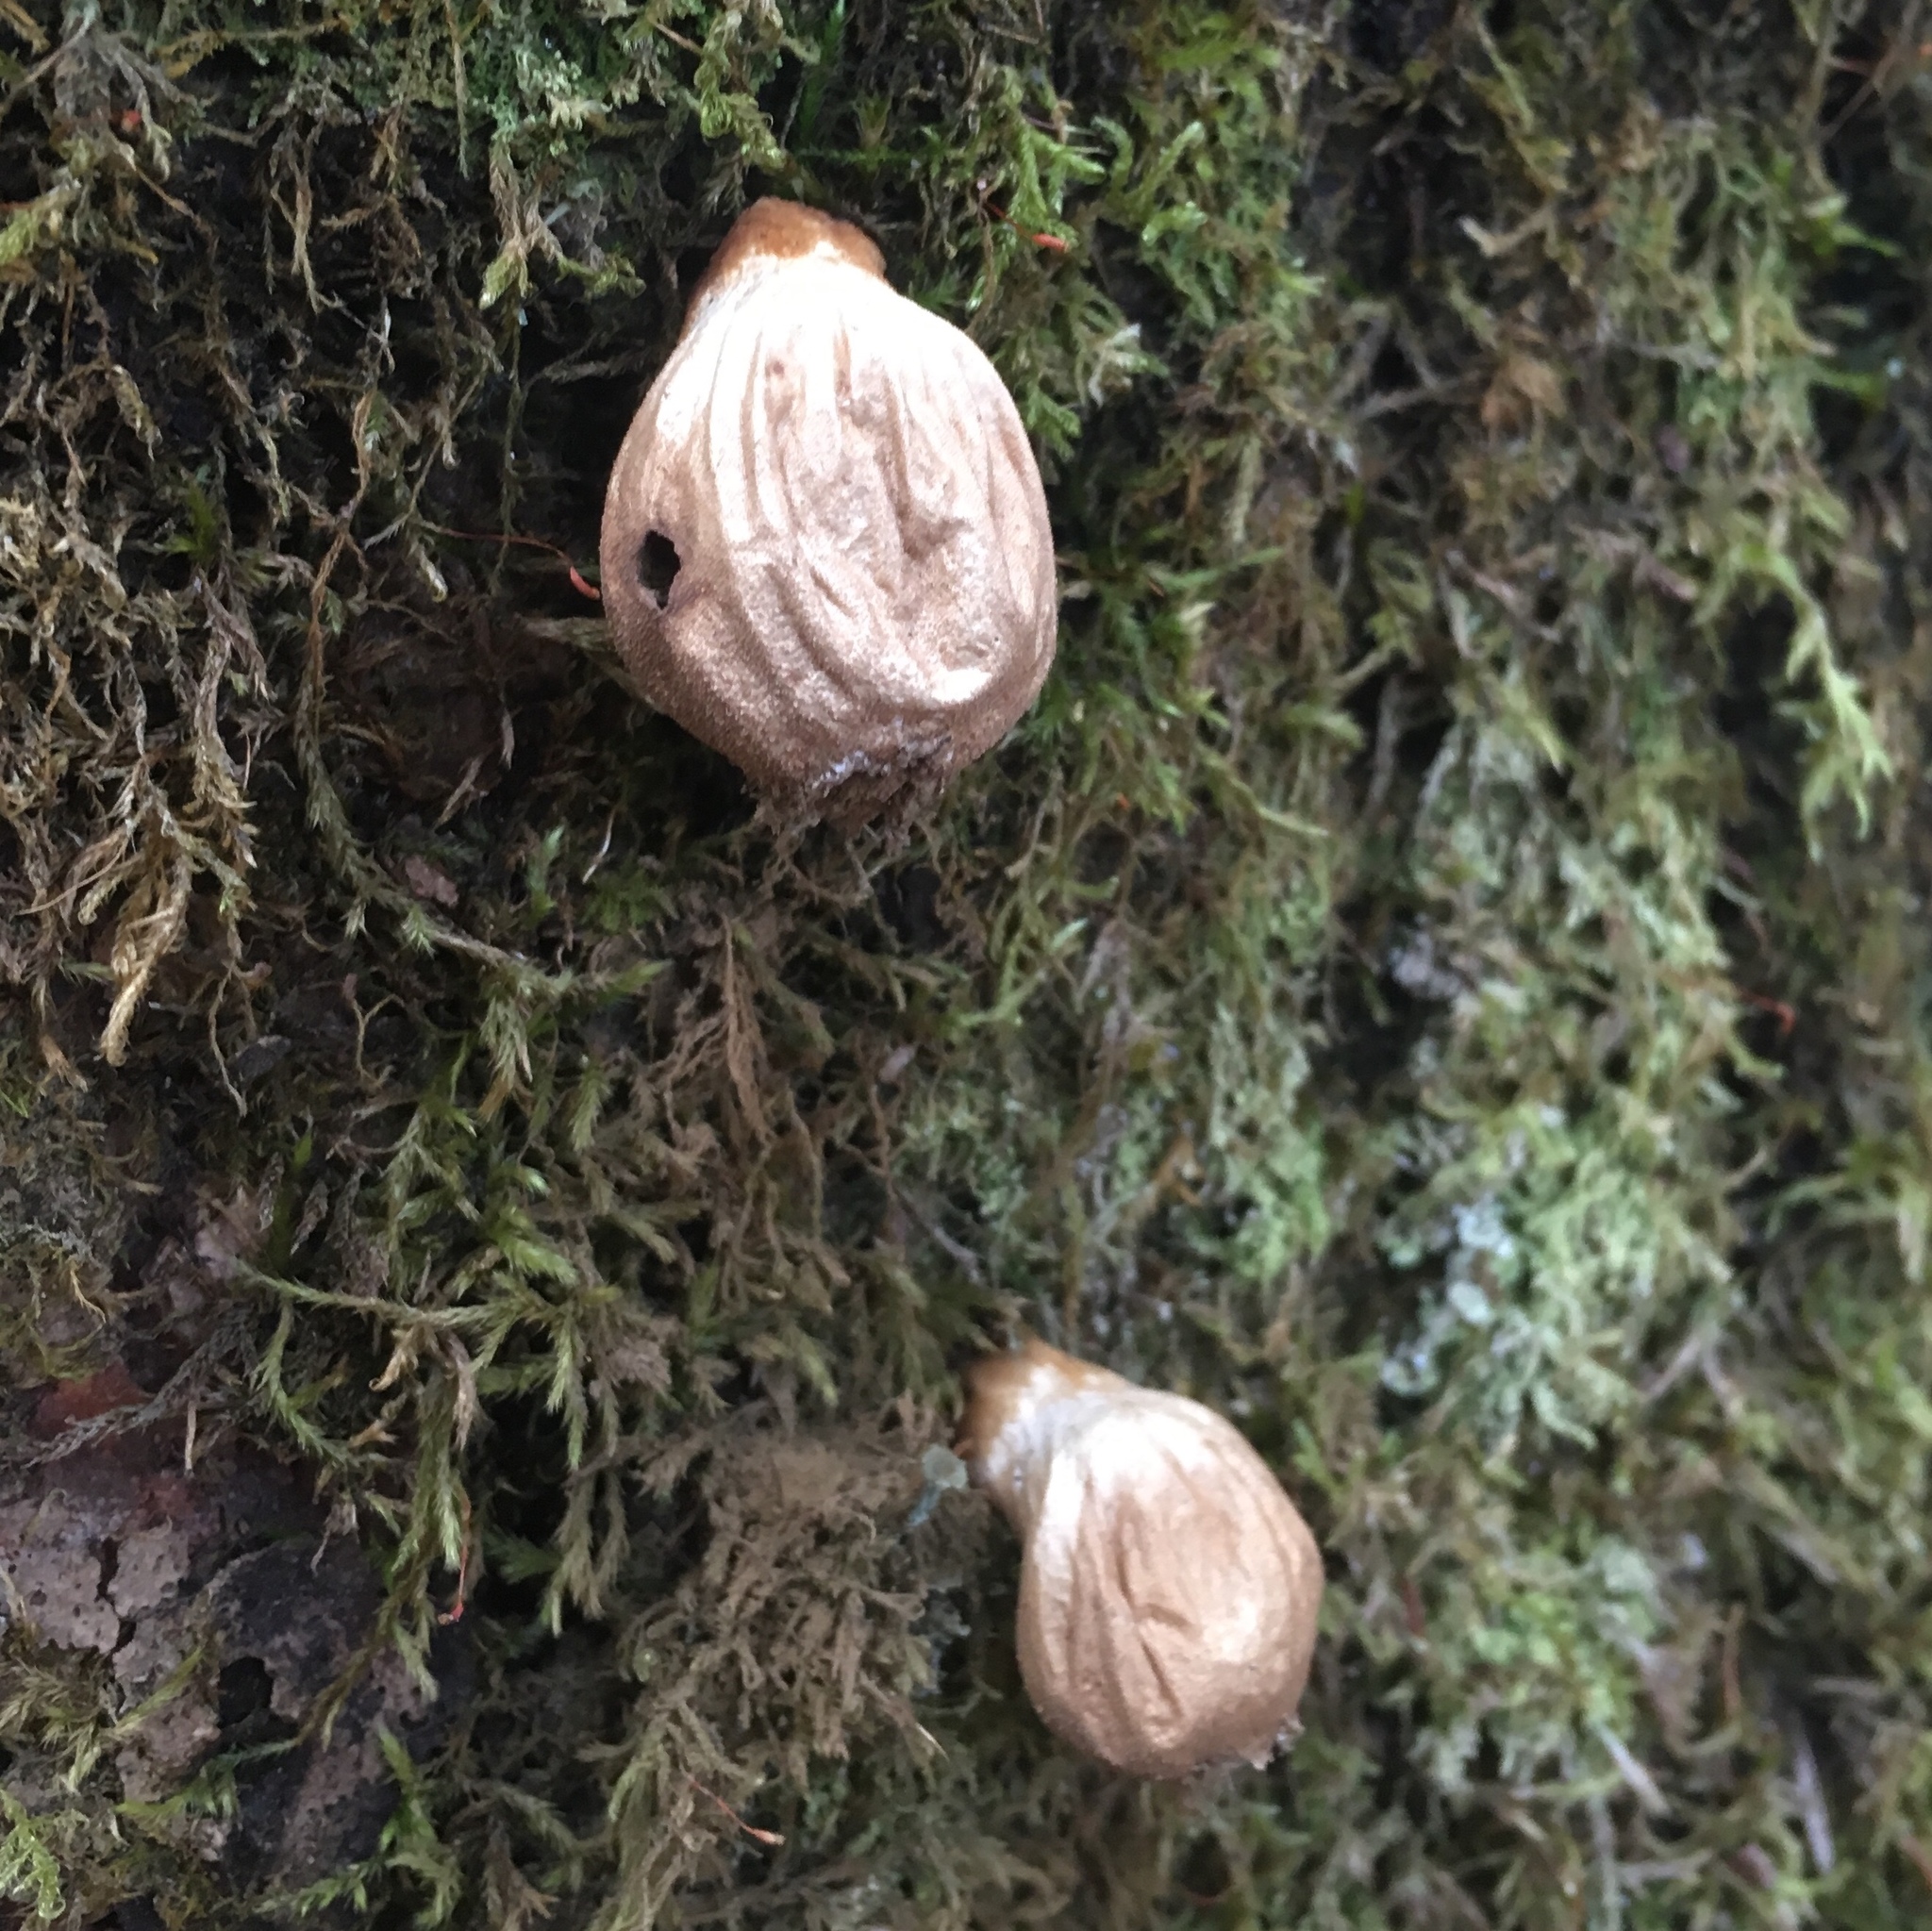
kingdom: Fungi
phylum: Basidiomycota
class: Agaricomycetes
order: Agaricales
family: Lycoperdaceae
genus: Apioperdon
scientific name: Apioperdon pyriforme
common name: Pear-shaped puffball
